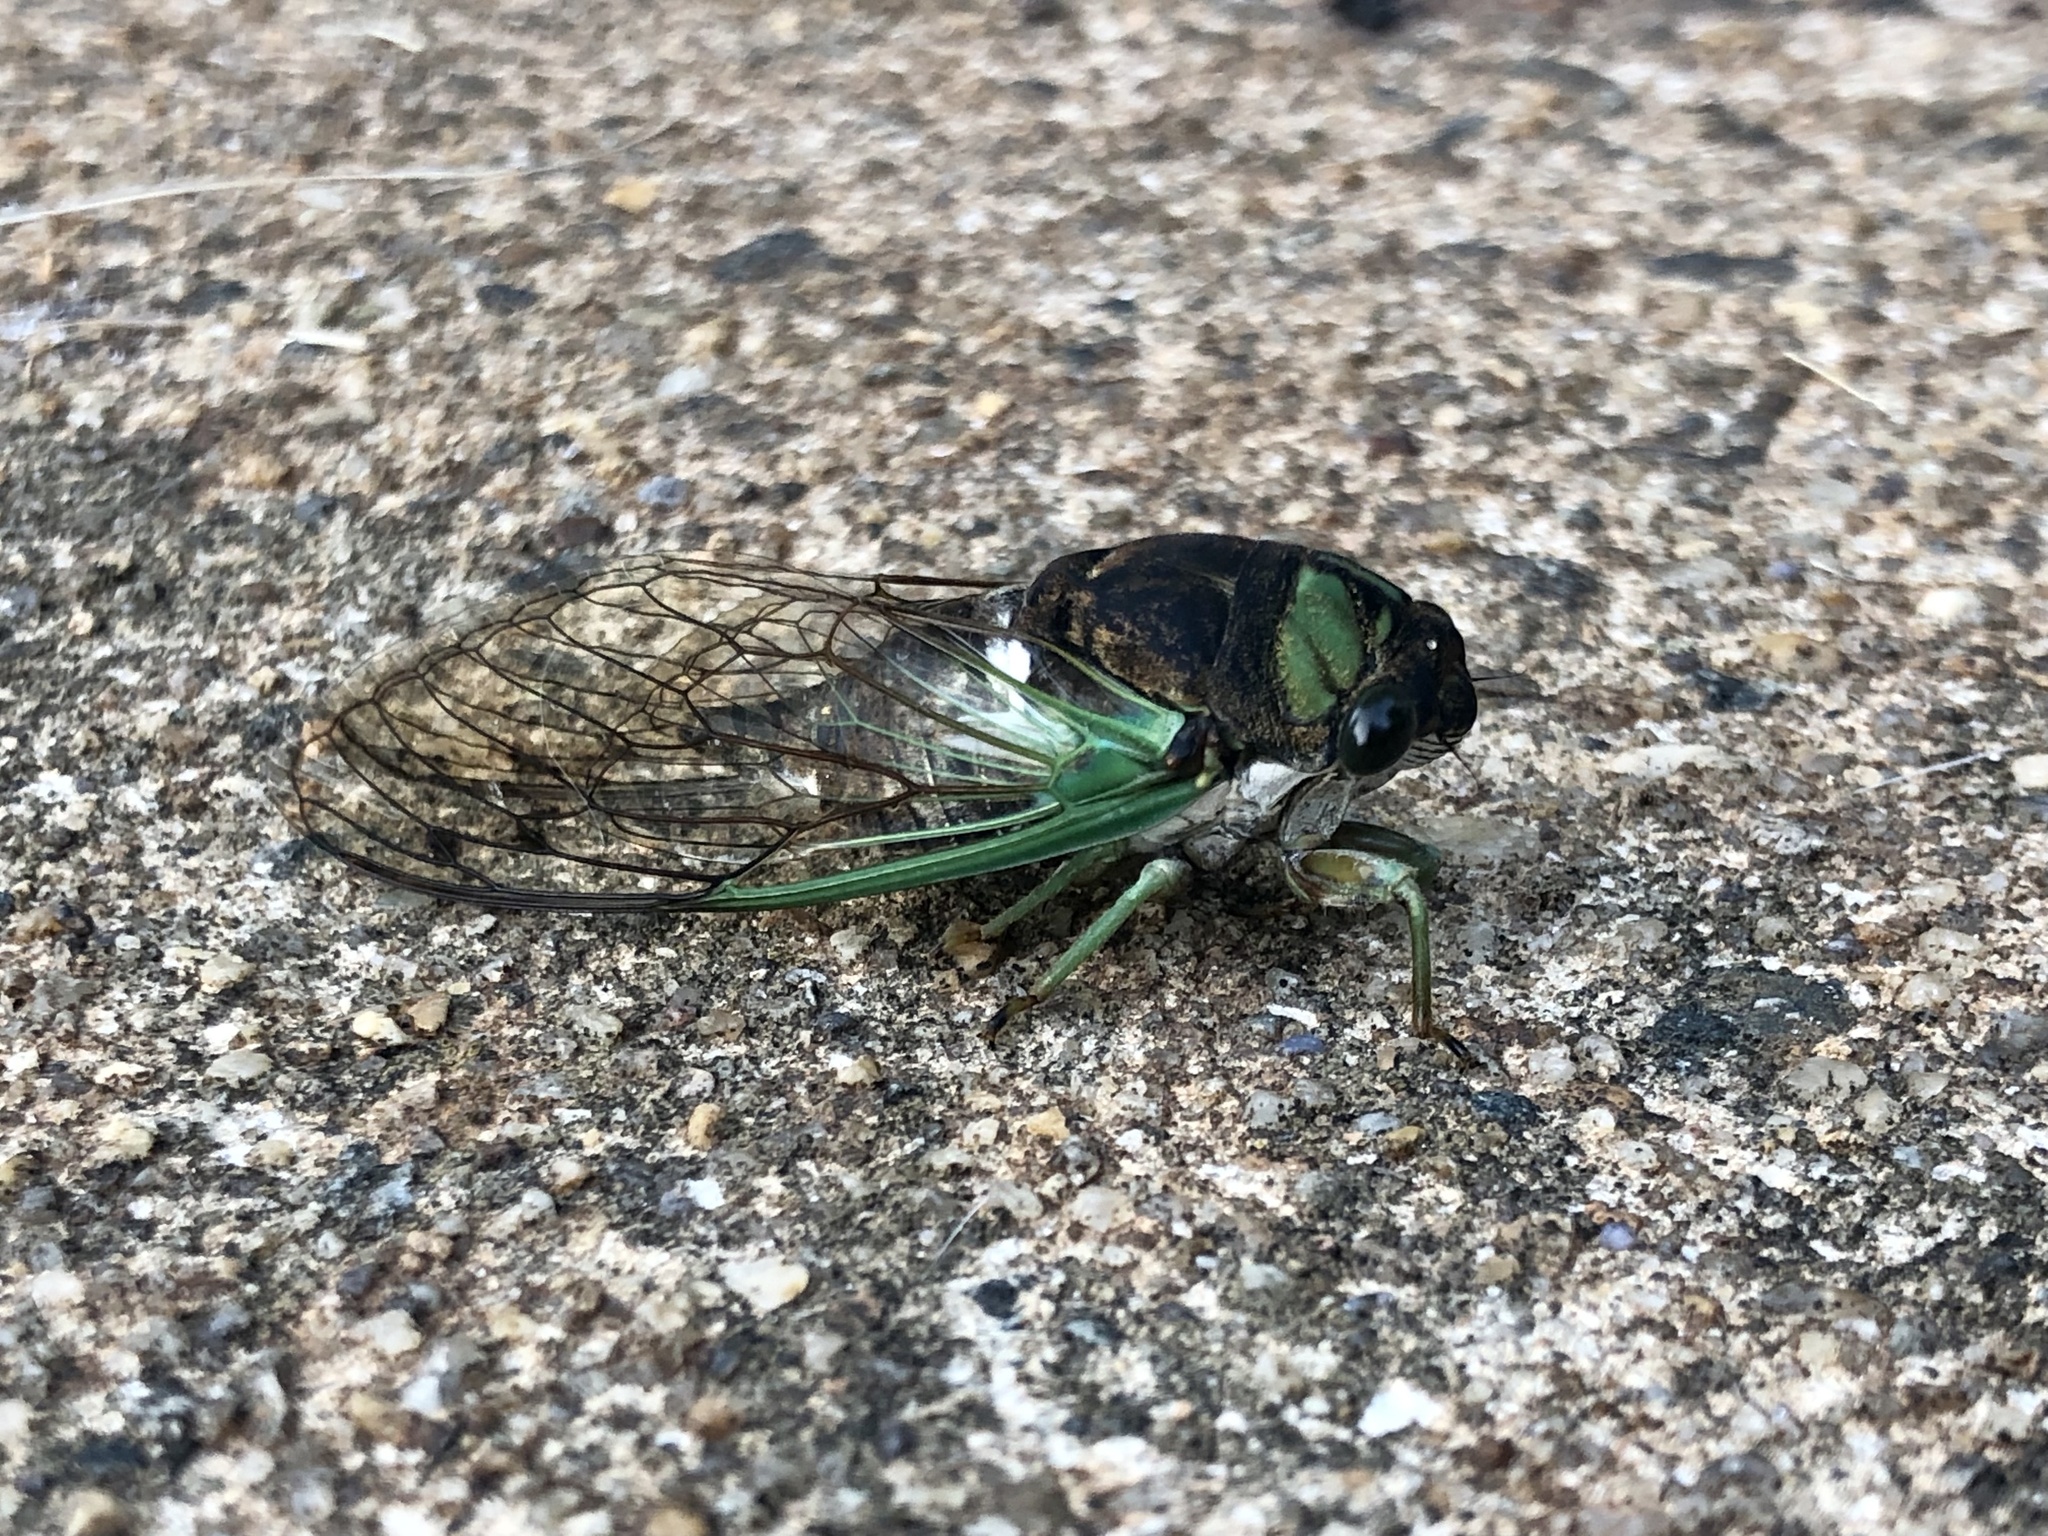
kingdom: Animalia
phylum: Arthropoda
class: Insecta
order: Hemiptera
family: Cicadidae
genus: Neotibicen
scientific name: Neotibicen tibicen
